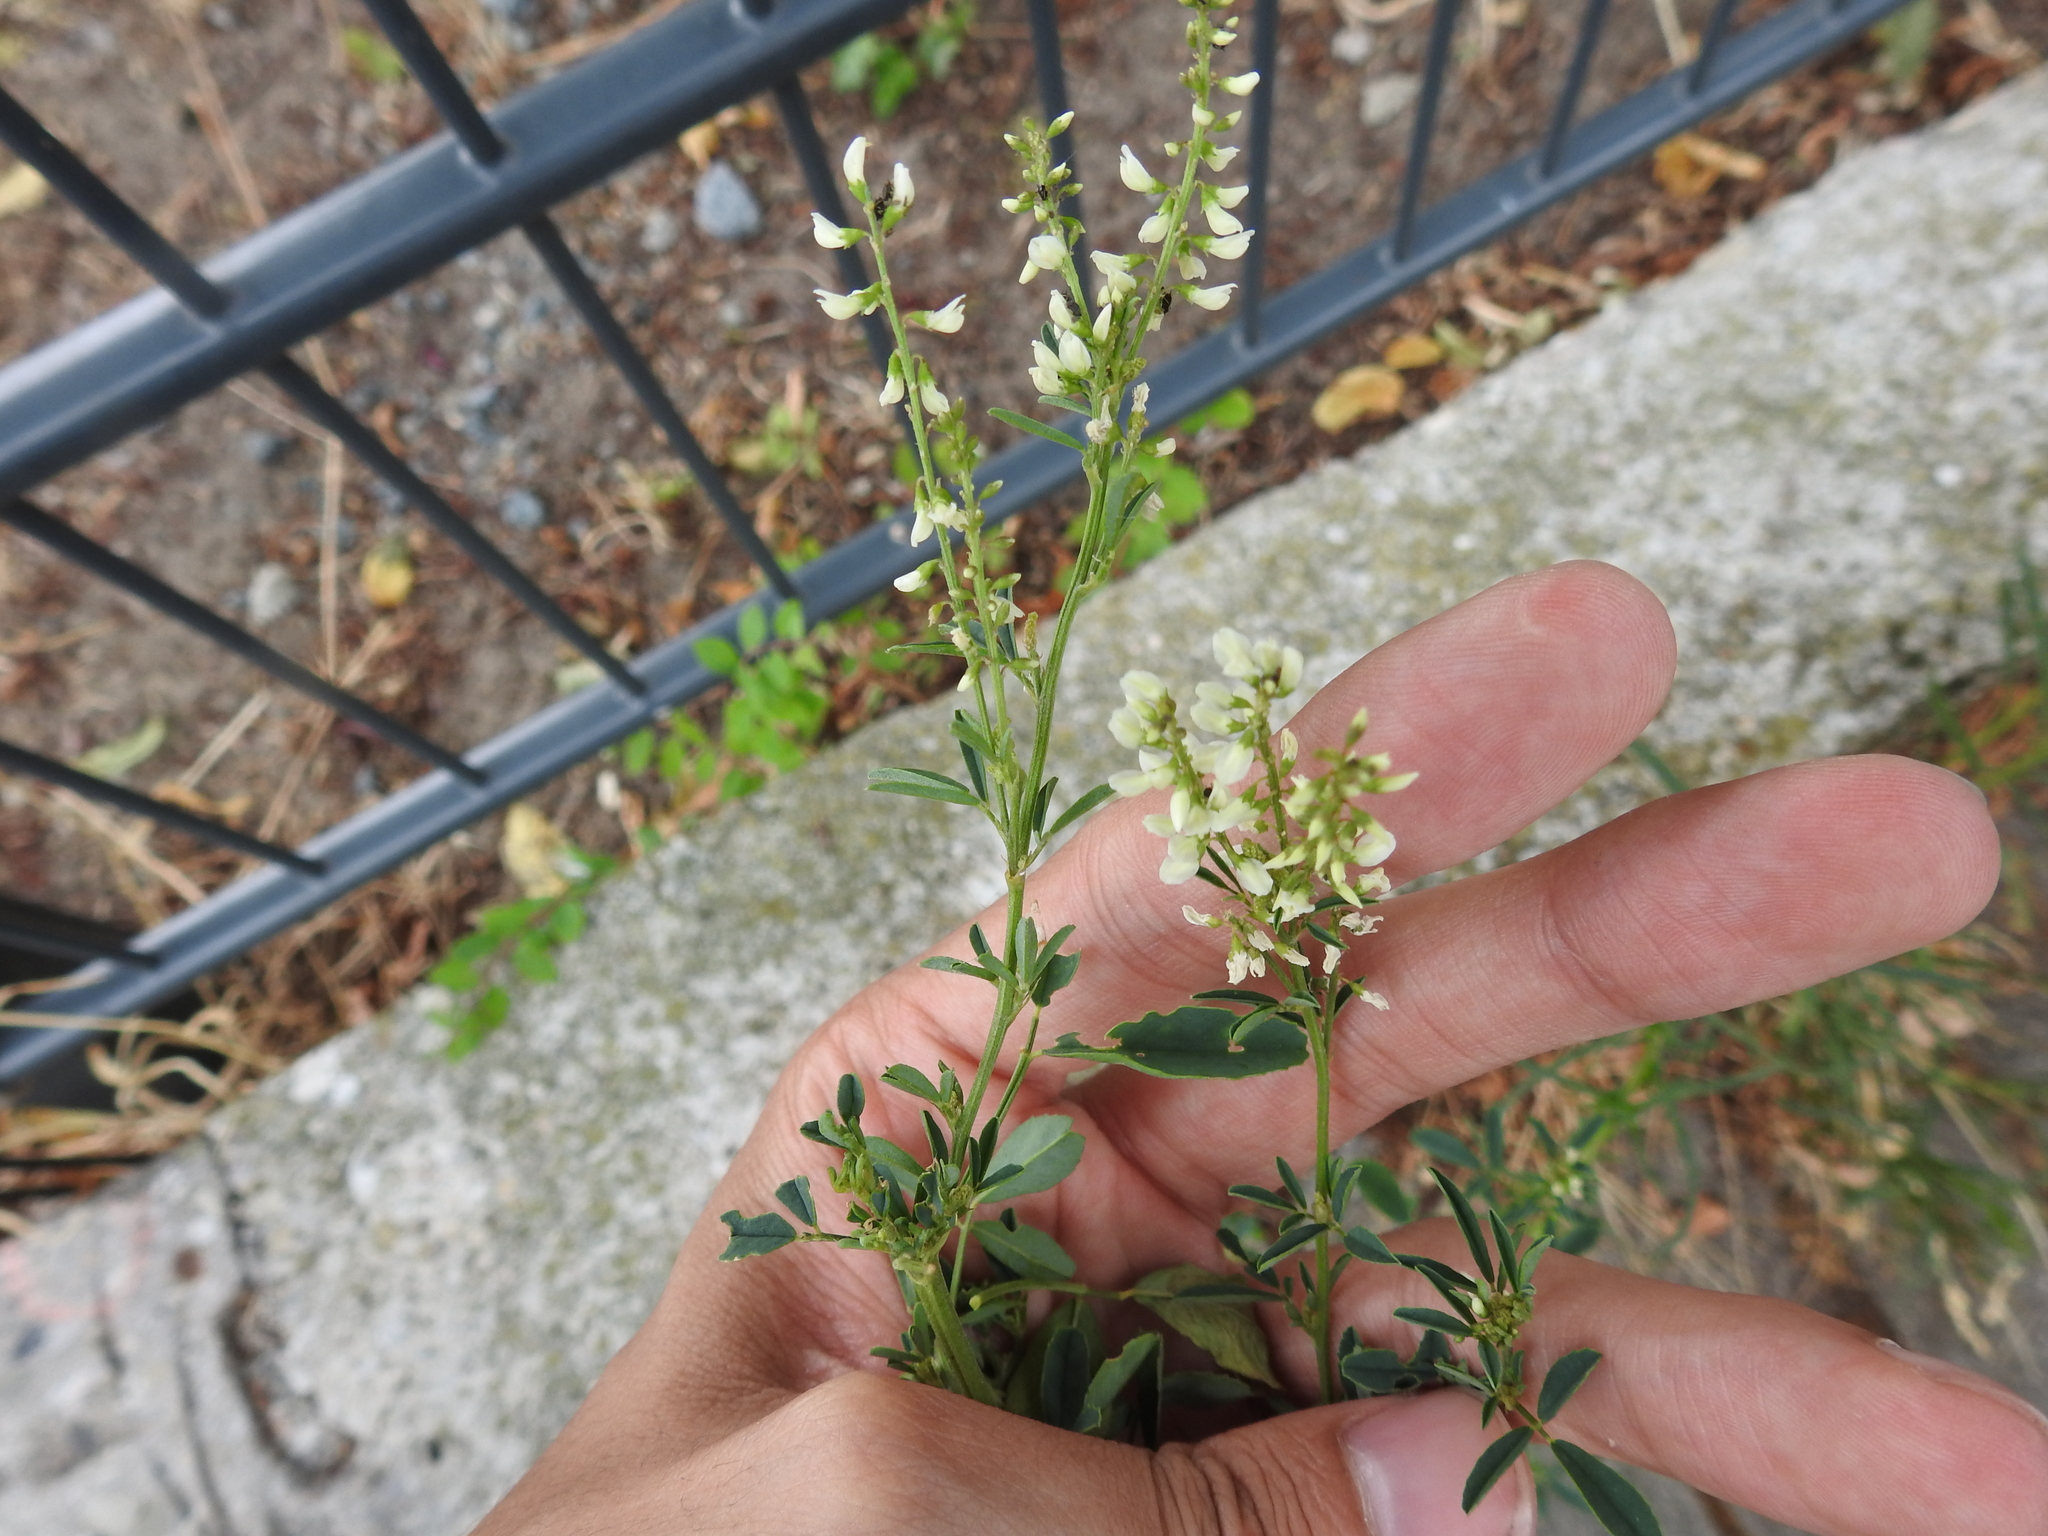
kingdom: Plantae
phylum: Tracheophyta
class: Magnoliopsida
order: Fabales
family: Fabaceae
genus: Melilotus
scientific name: Melilotus albus
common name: White melilot
